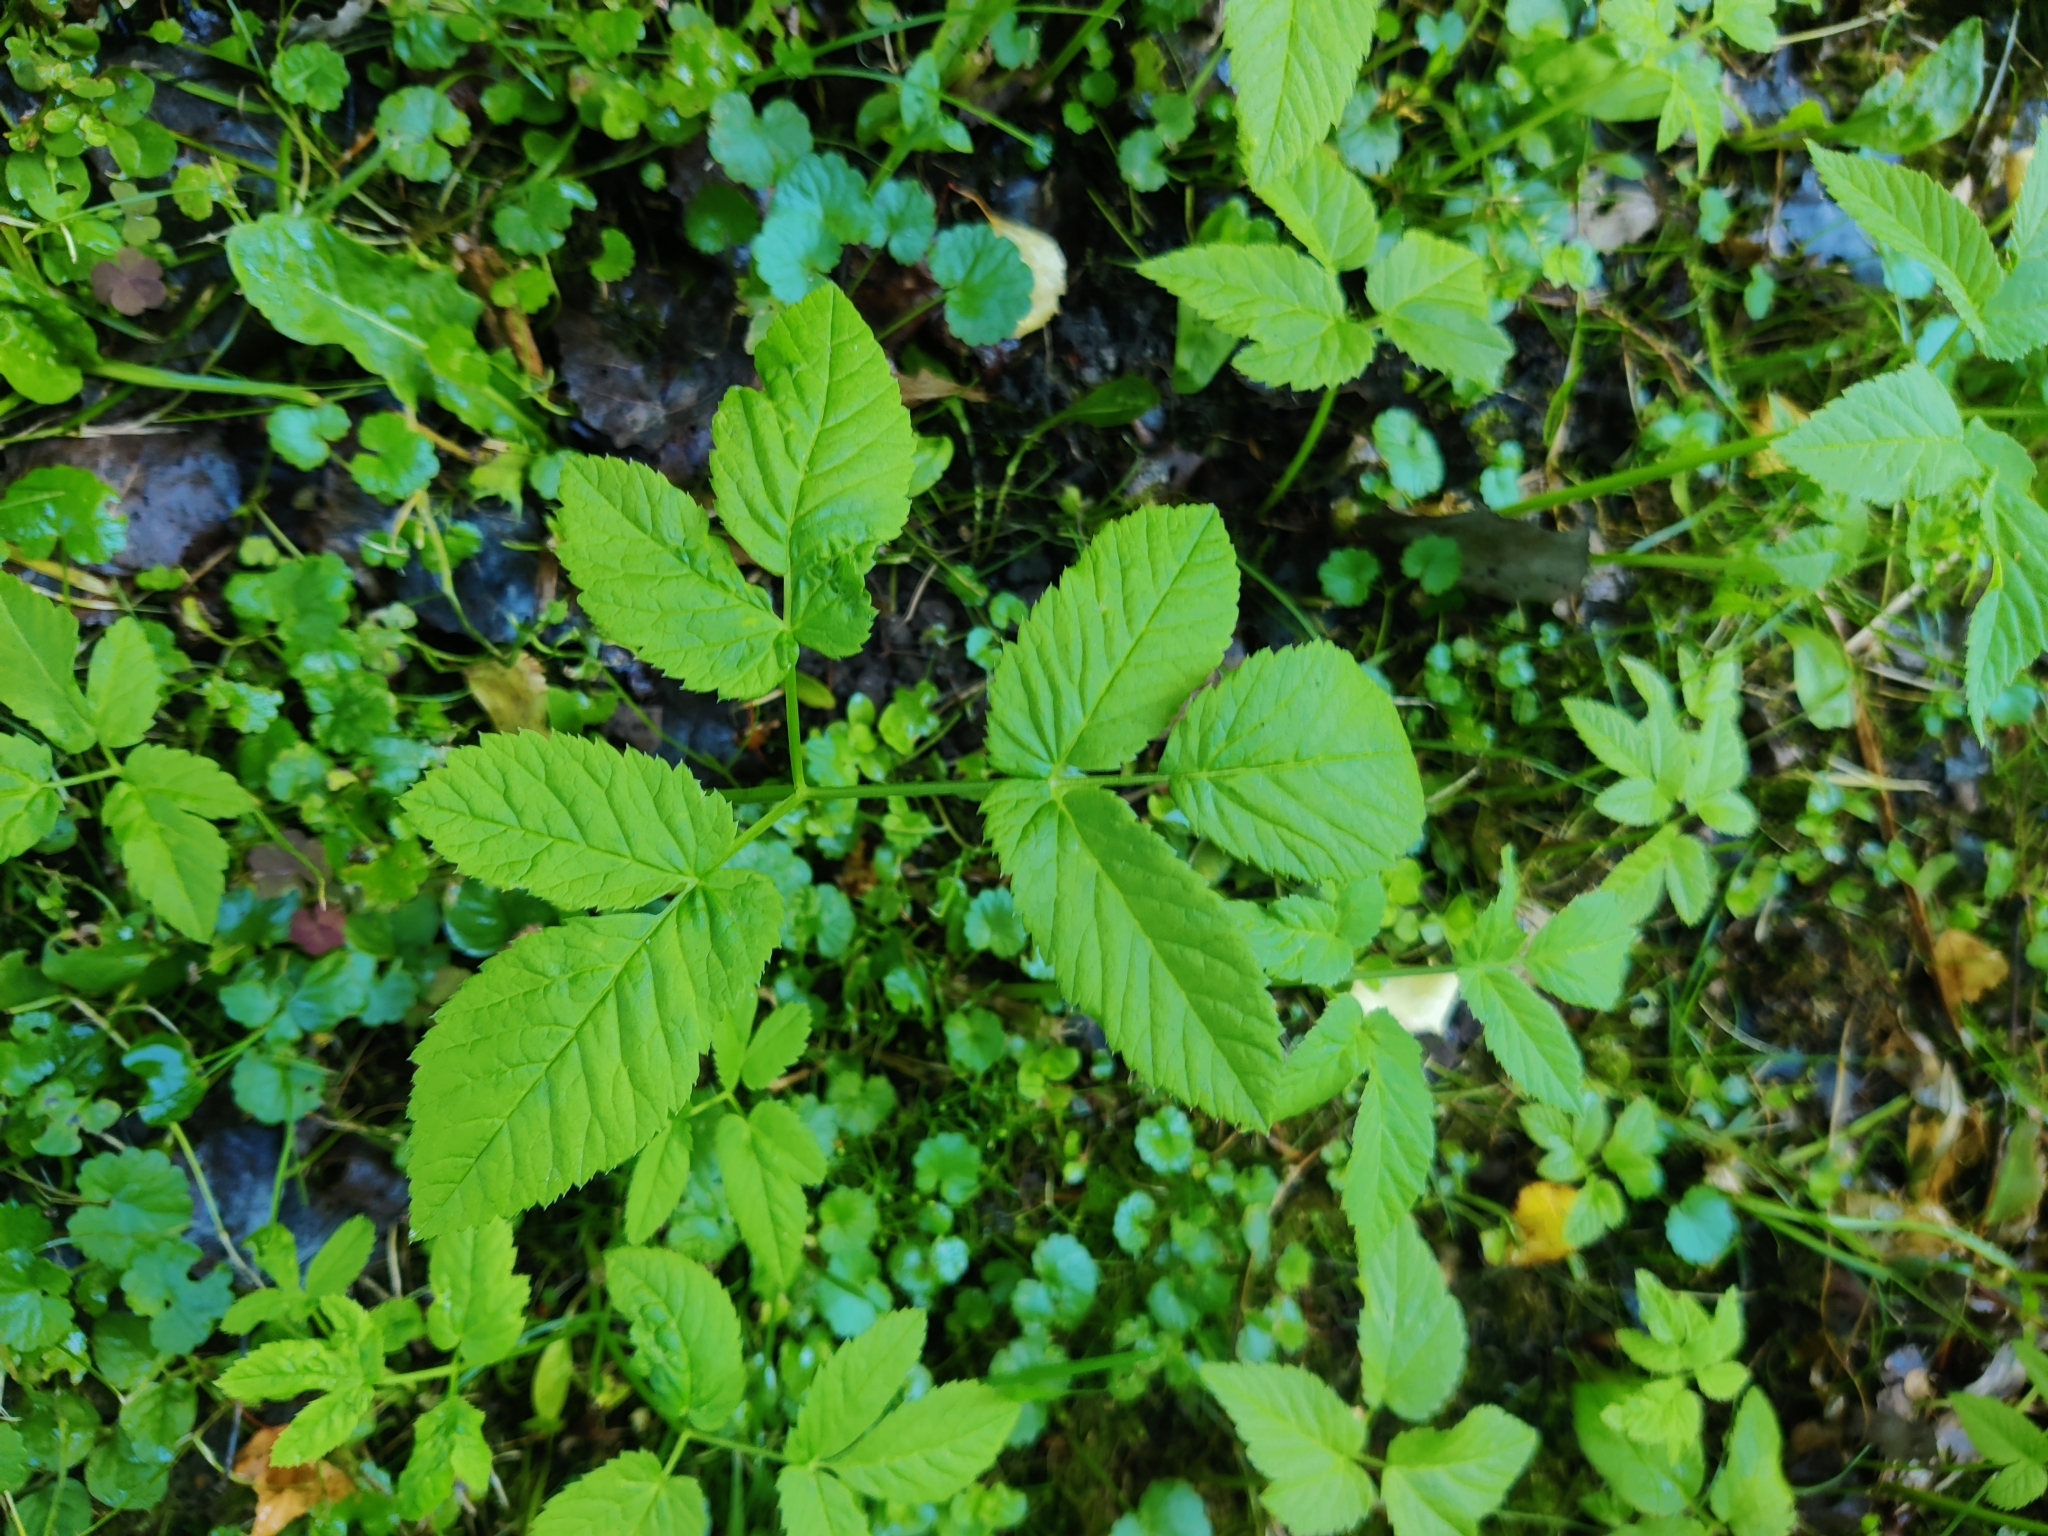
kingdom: Plantae
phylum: Tracheophyta
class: Magnoliopsida
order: Apiales
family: Apiaceae
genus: Aegopodium
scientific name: Aegopodium podagraria
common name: Ground-elder
